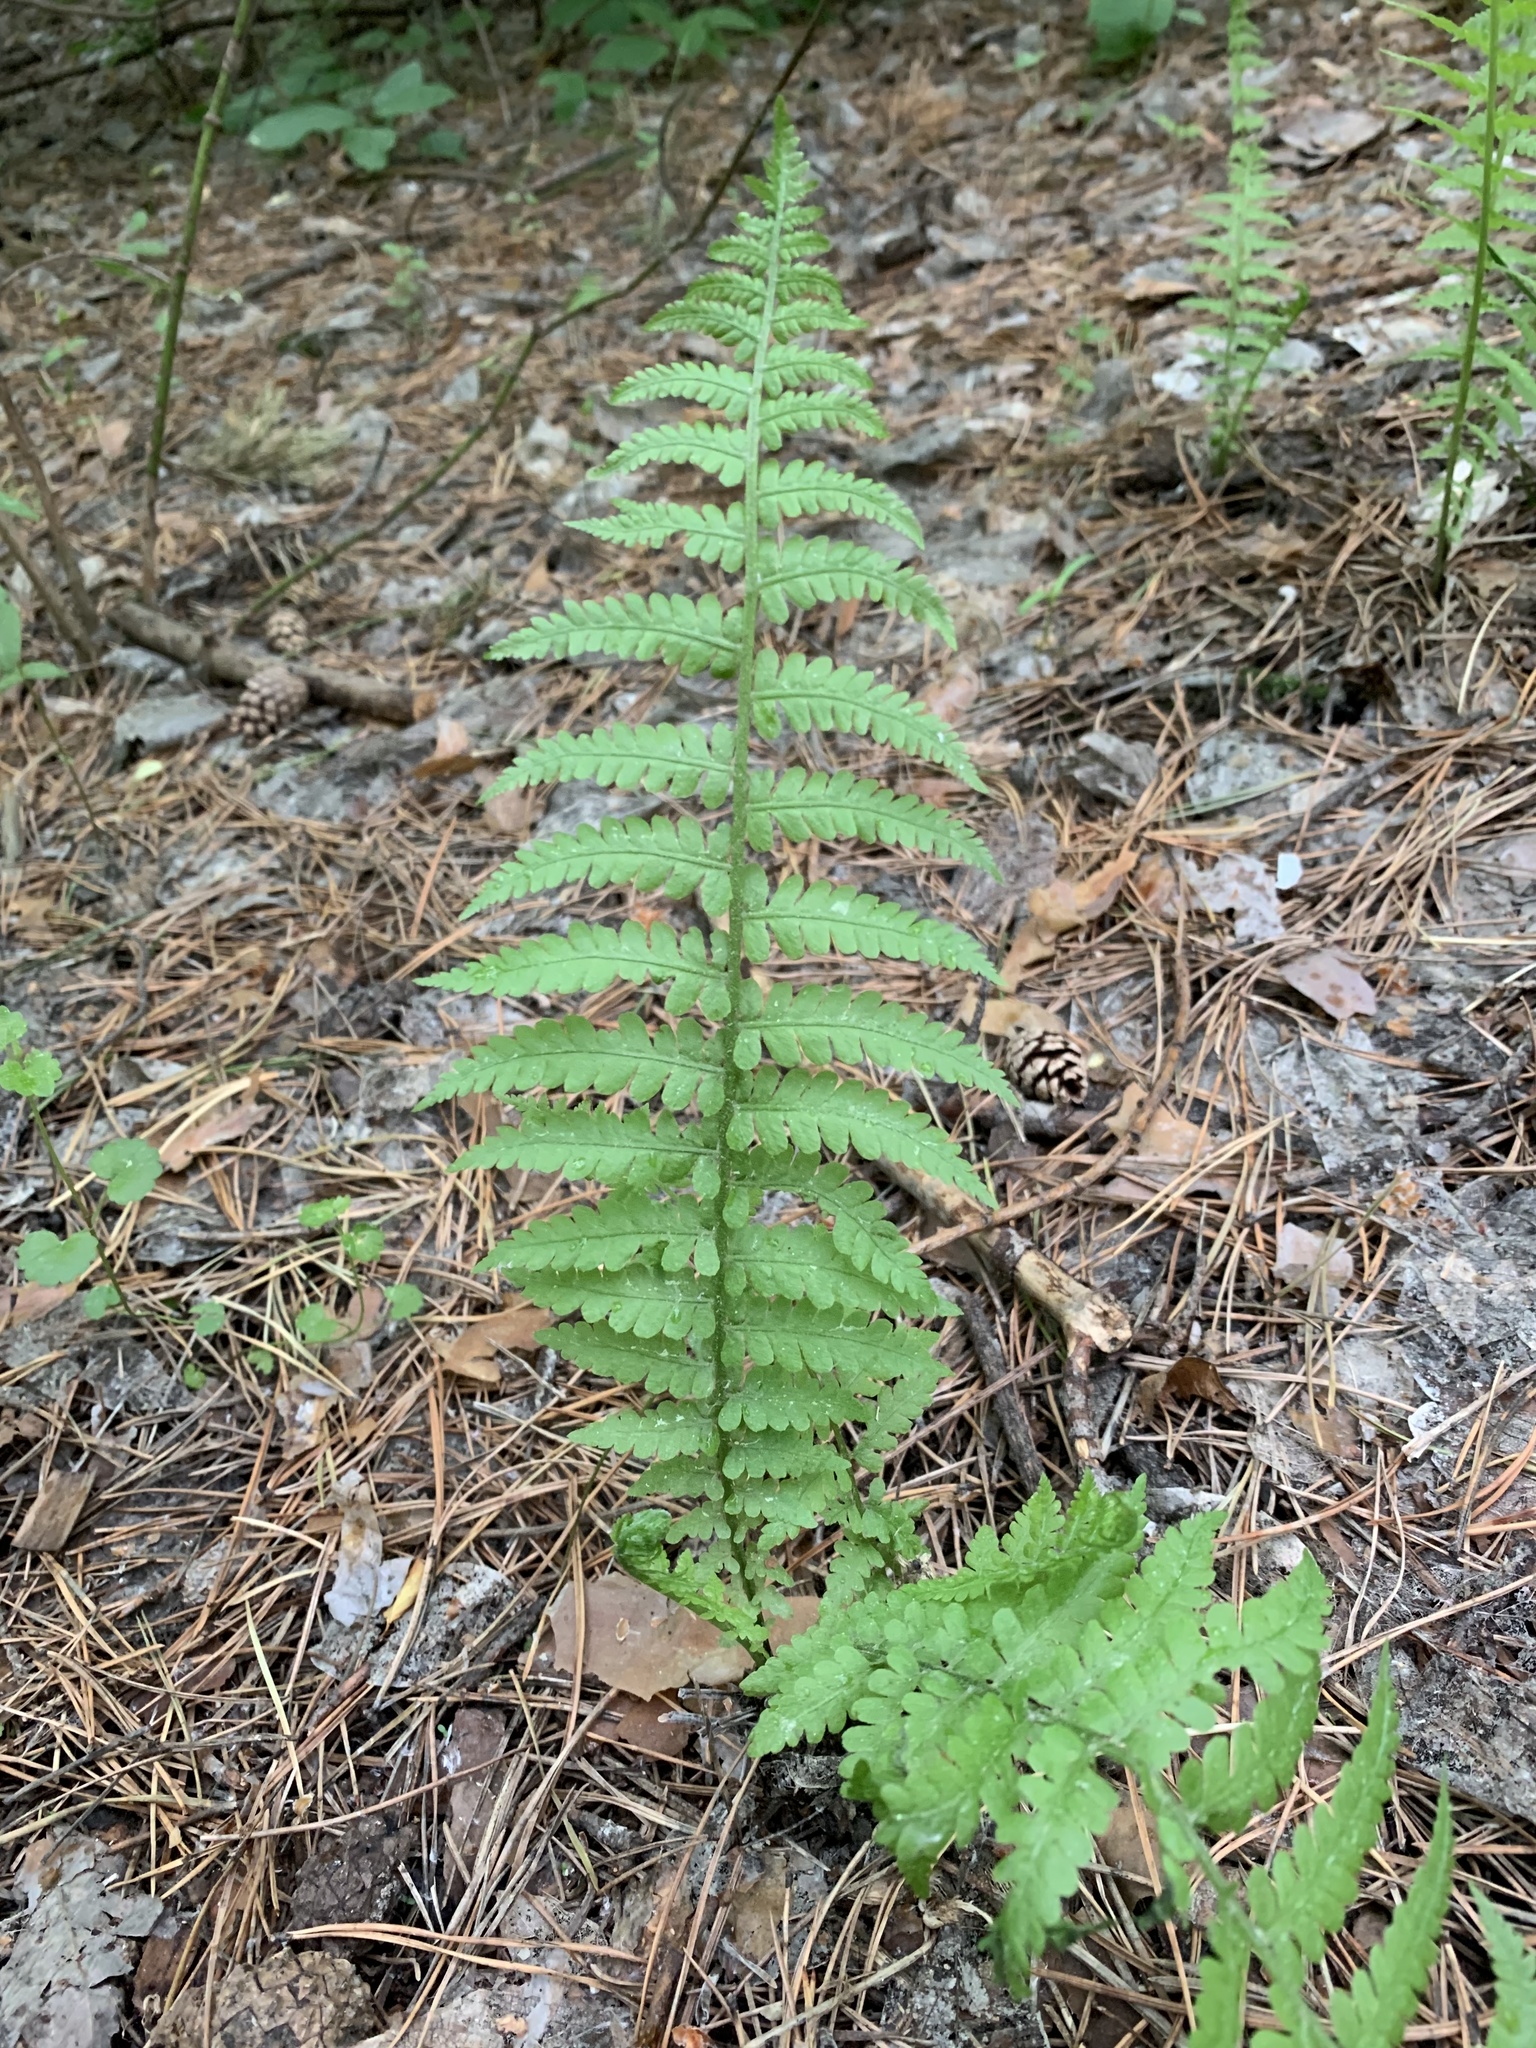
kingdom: Plantae
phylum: Tracheophyta
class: Polypodiopsida
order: Polypodiales
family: Onocleaceae
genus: Matteuccia
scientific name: Matteuccia struthiopteris
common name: Ostrich fern
